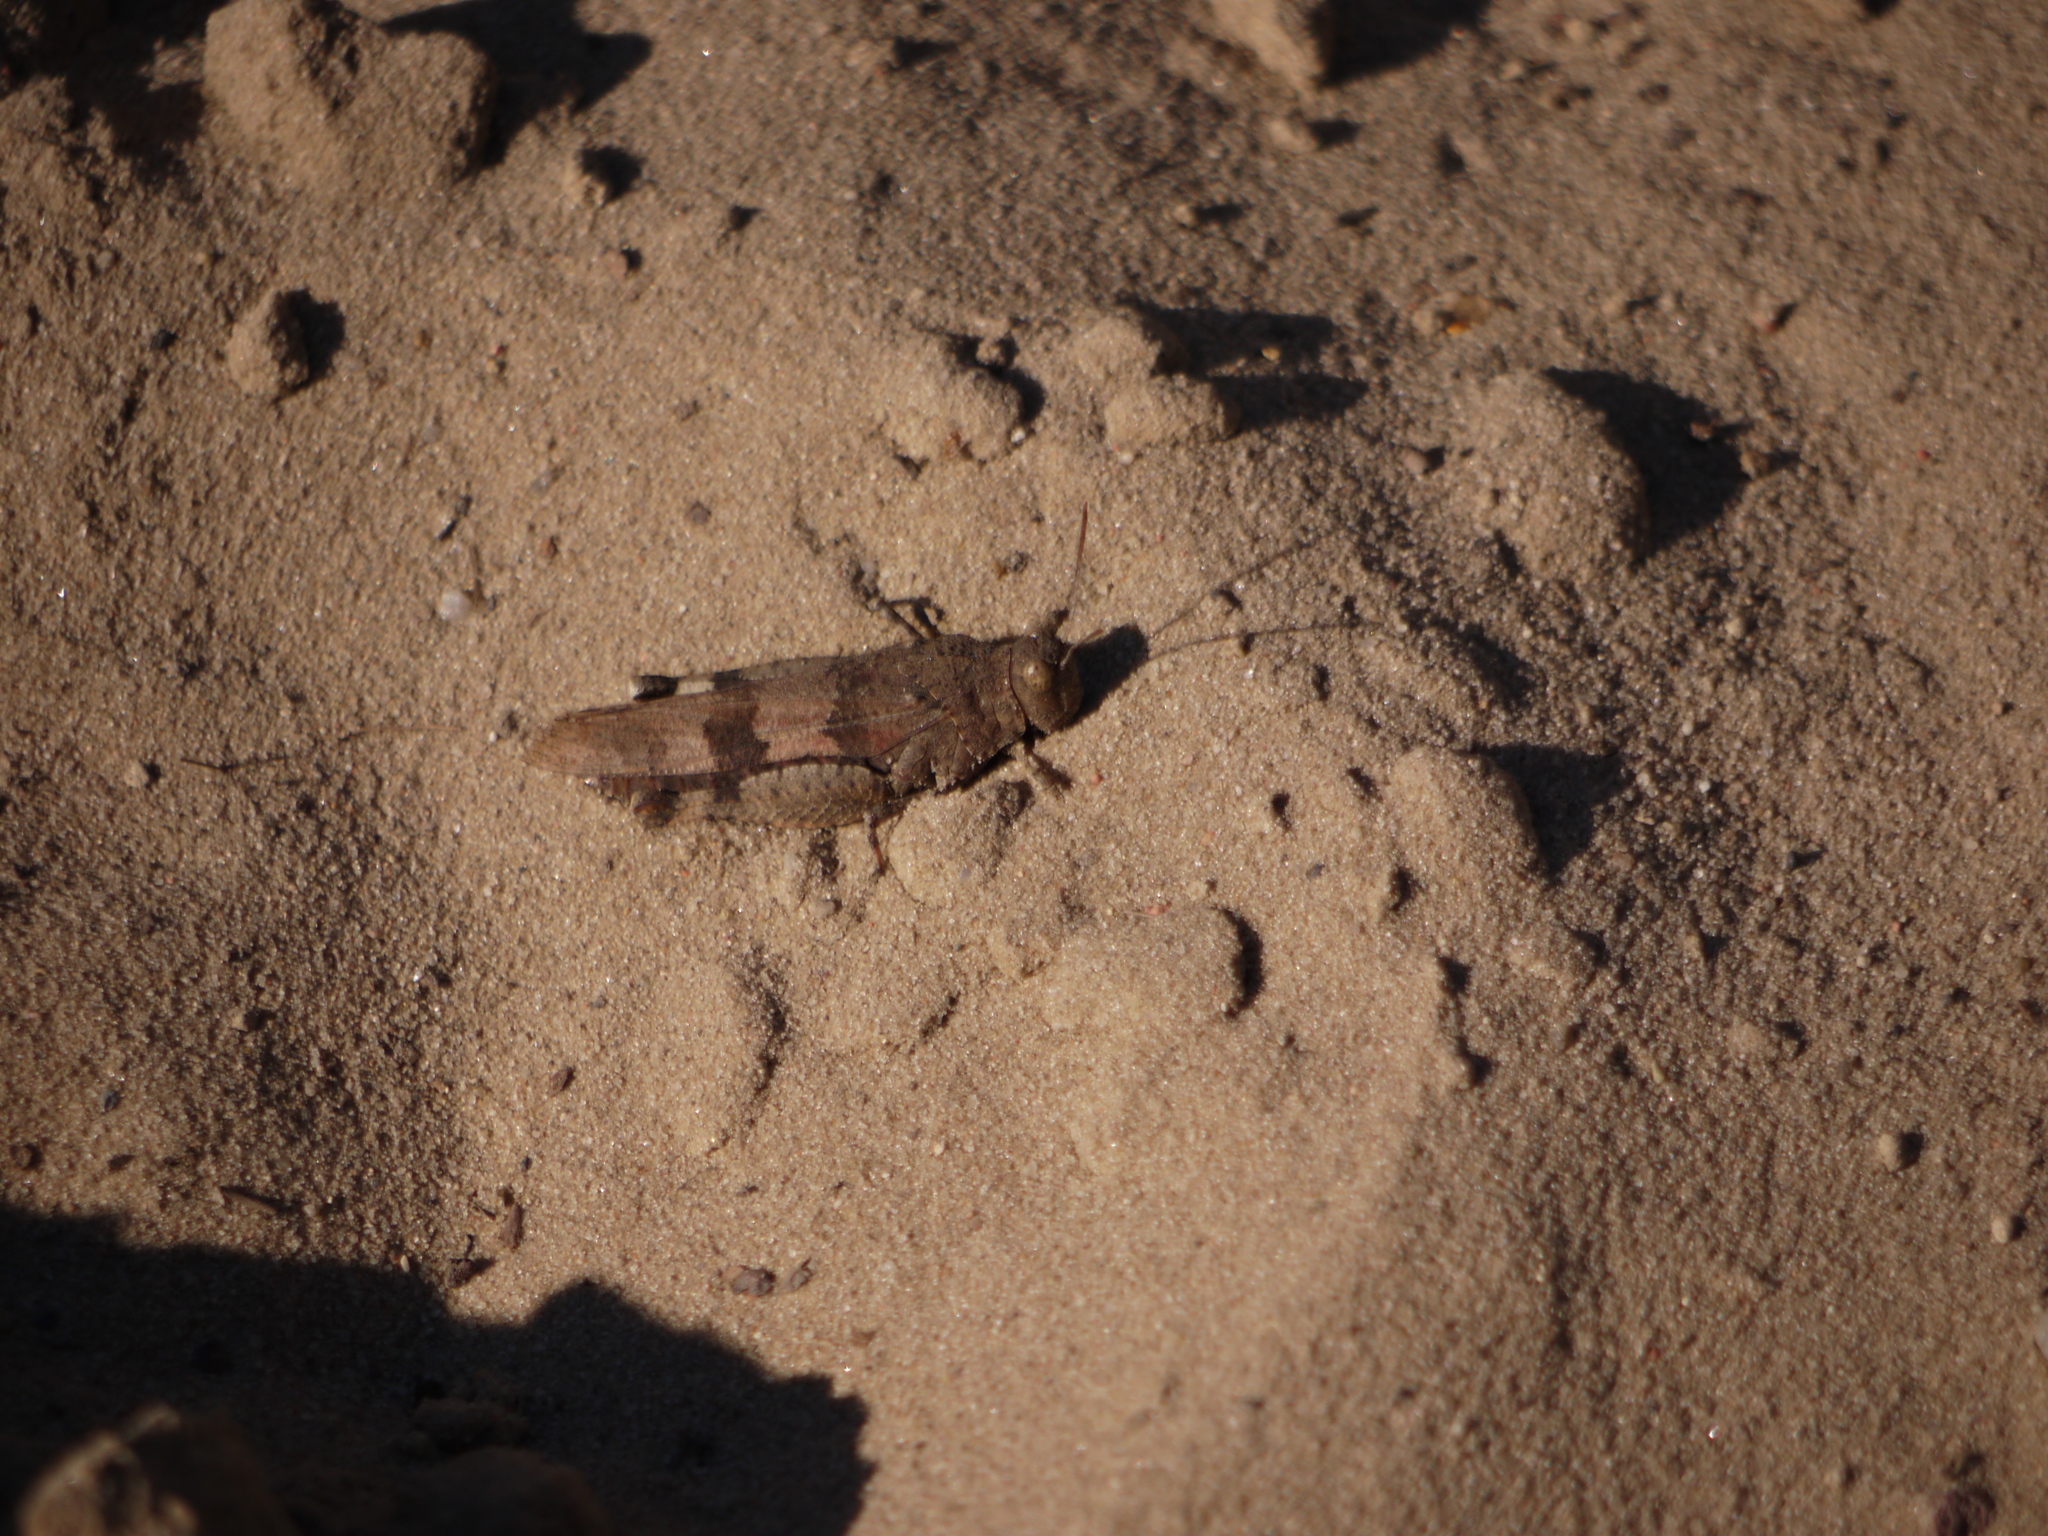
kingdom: Animalia
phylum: Arthropoda
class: Insecta
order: Orthoptera
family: Acrididae
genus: Oedipoda
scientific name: Oedipoda caerulescens
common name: Blue-winged grasshopper
